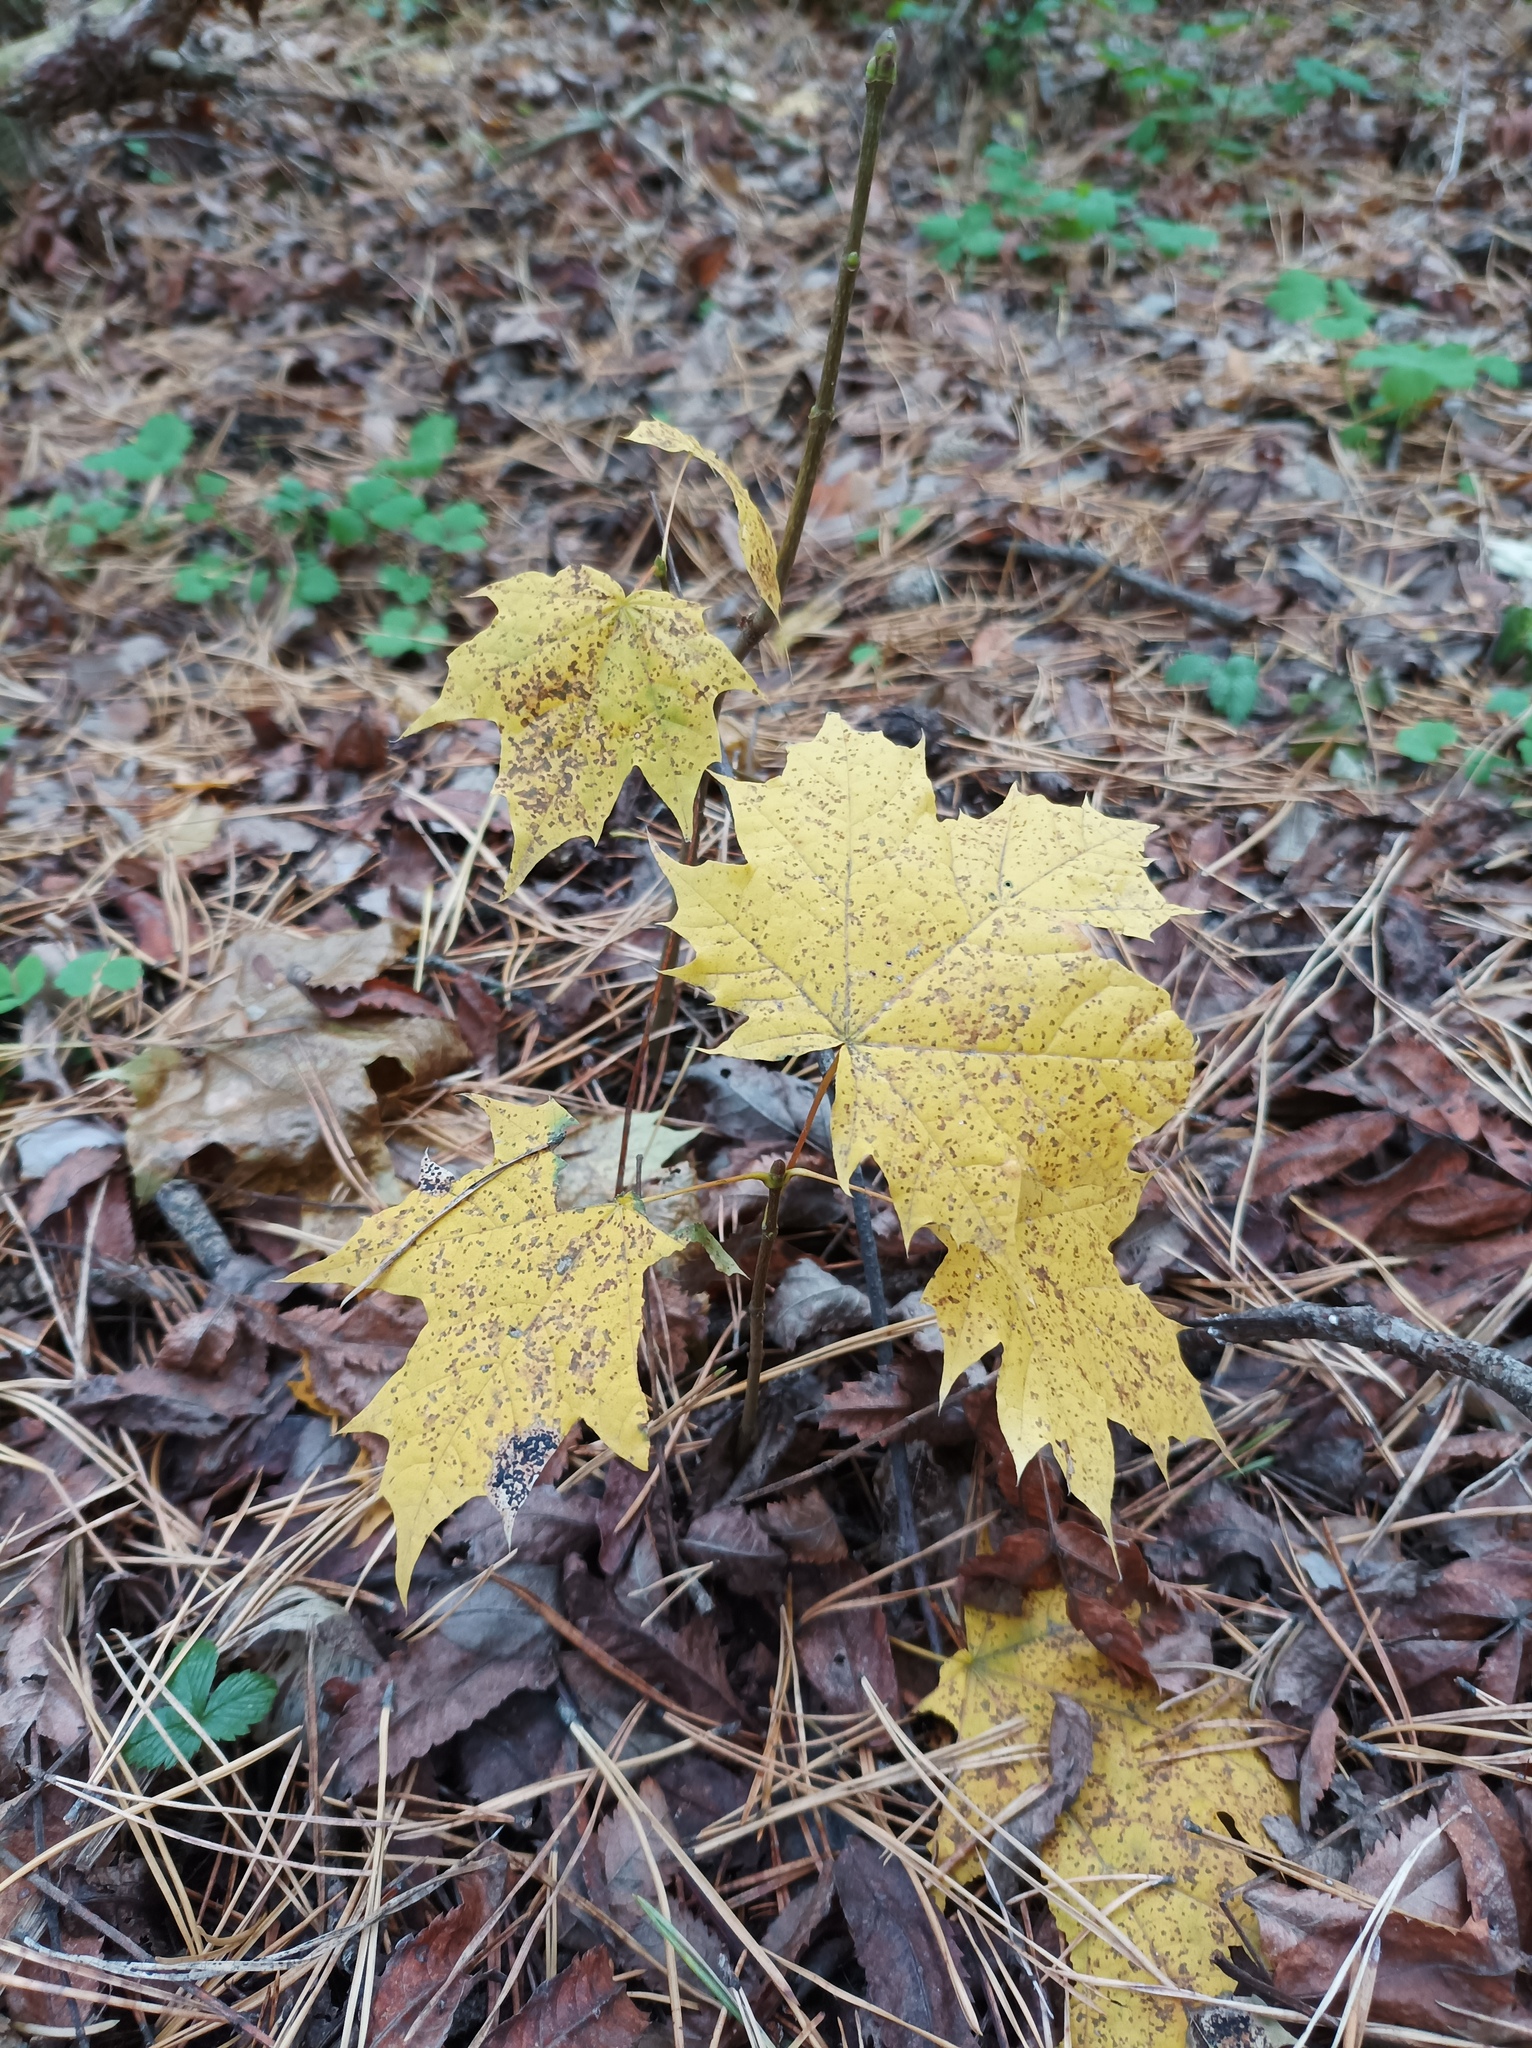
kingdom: Plantae
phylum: Tracheophyta
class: Magnoliopsida
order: Sapindales
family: Sapindaceae
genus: Acer
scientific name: Acer platanoides
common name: Norway maple
